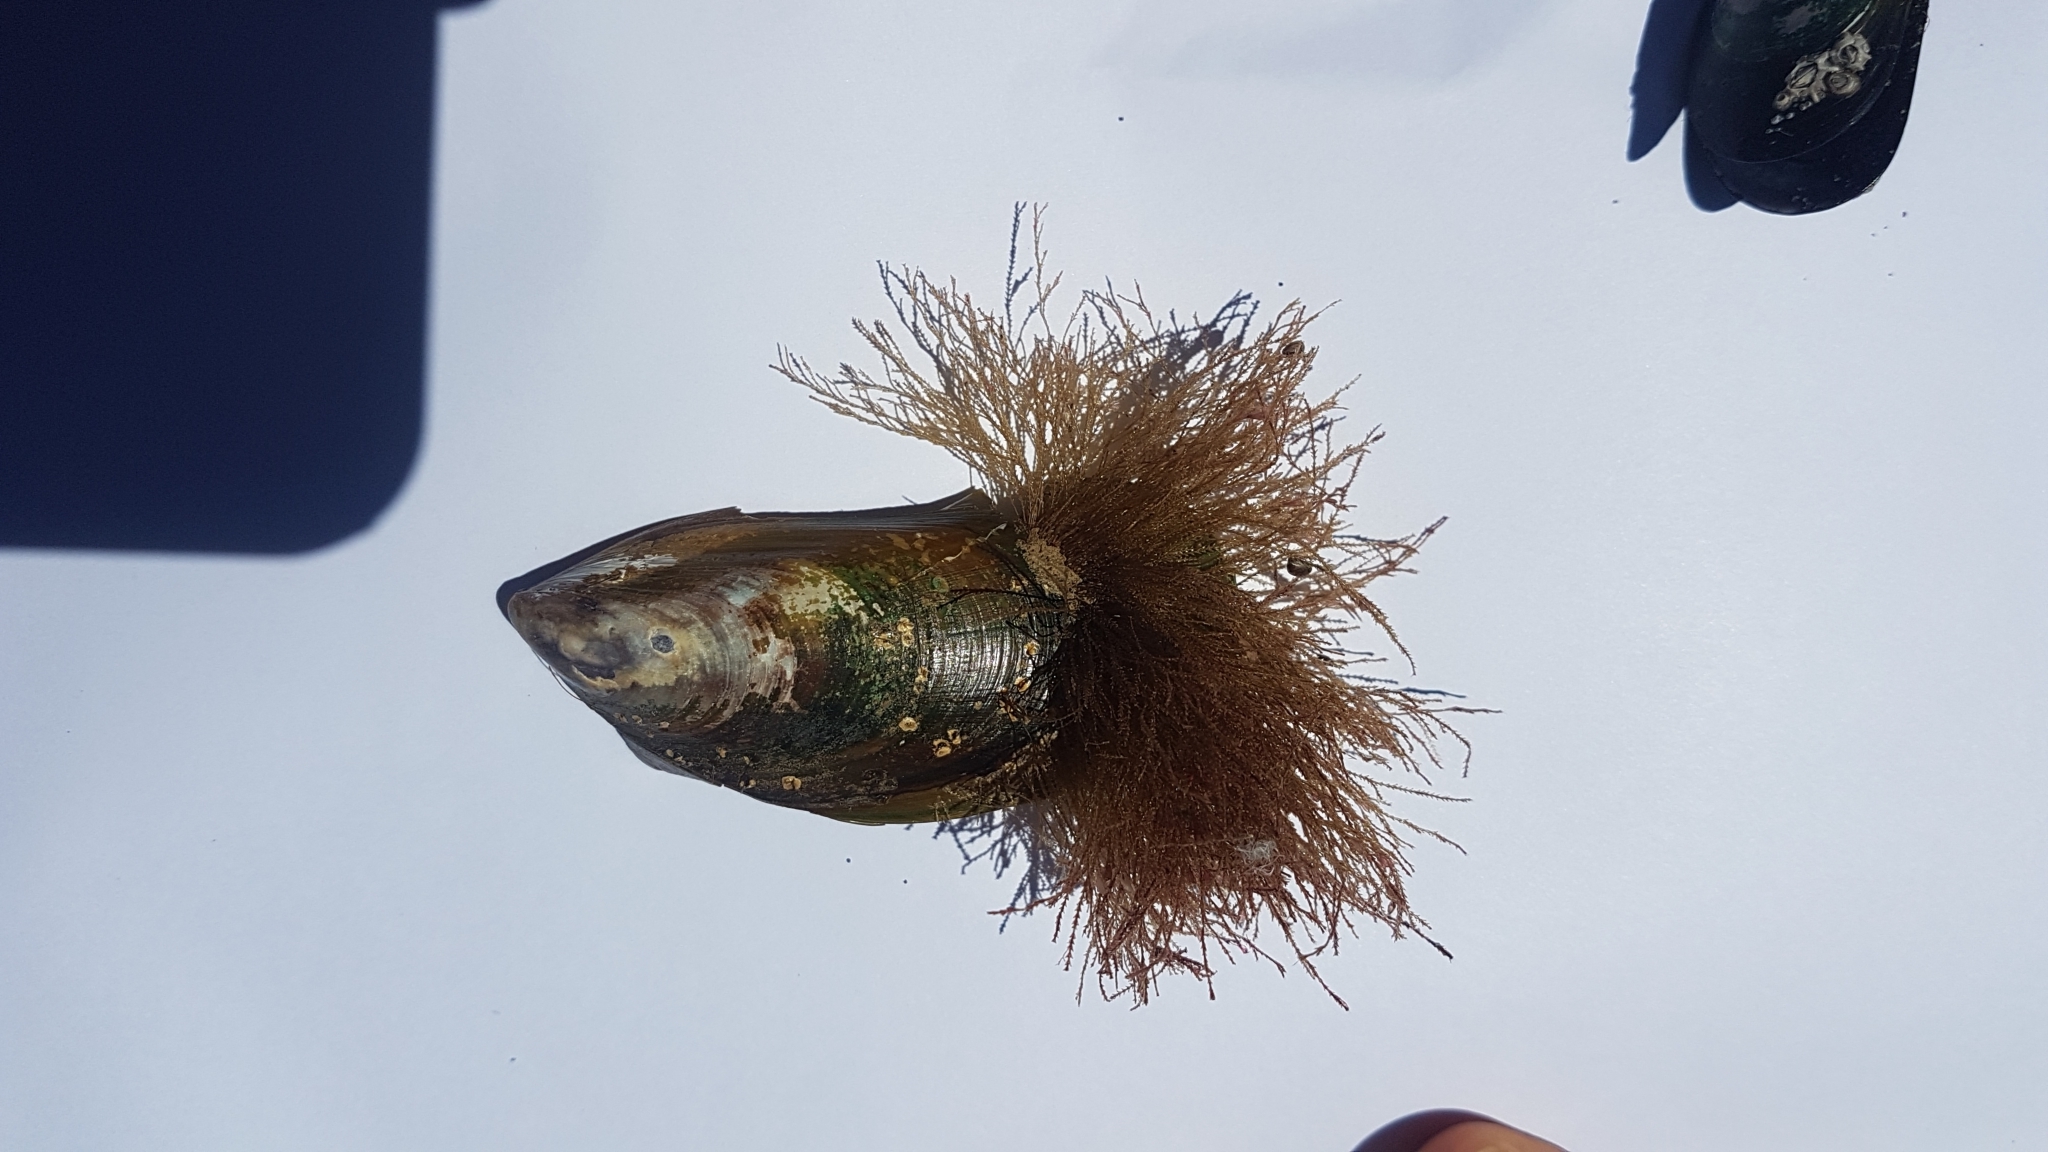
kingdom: Animalia
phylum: Cnidaria
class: Hydrozoa
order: Leptothecata
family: Sertulariidae
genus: Amphisbetia
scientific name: Amphisbetia bispinosa
